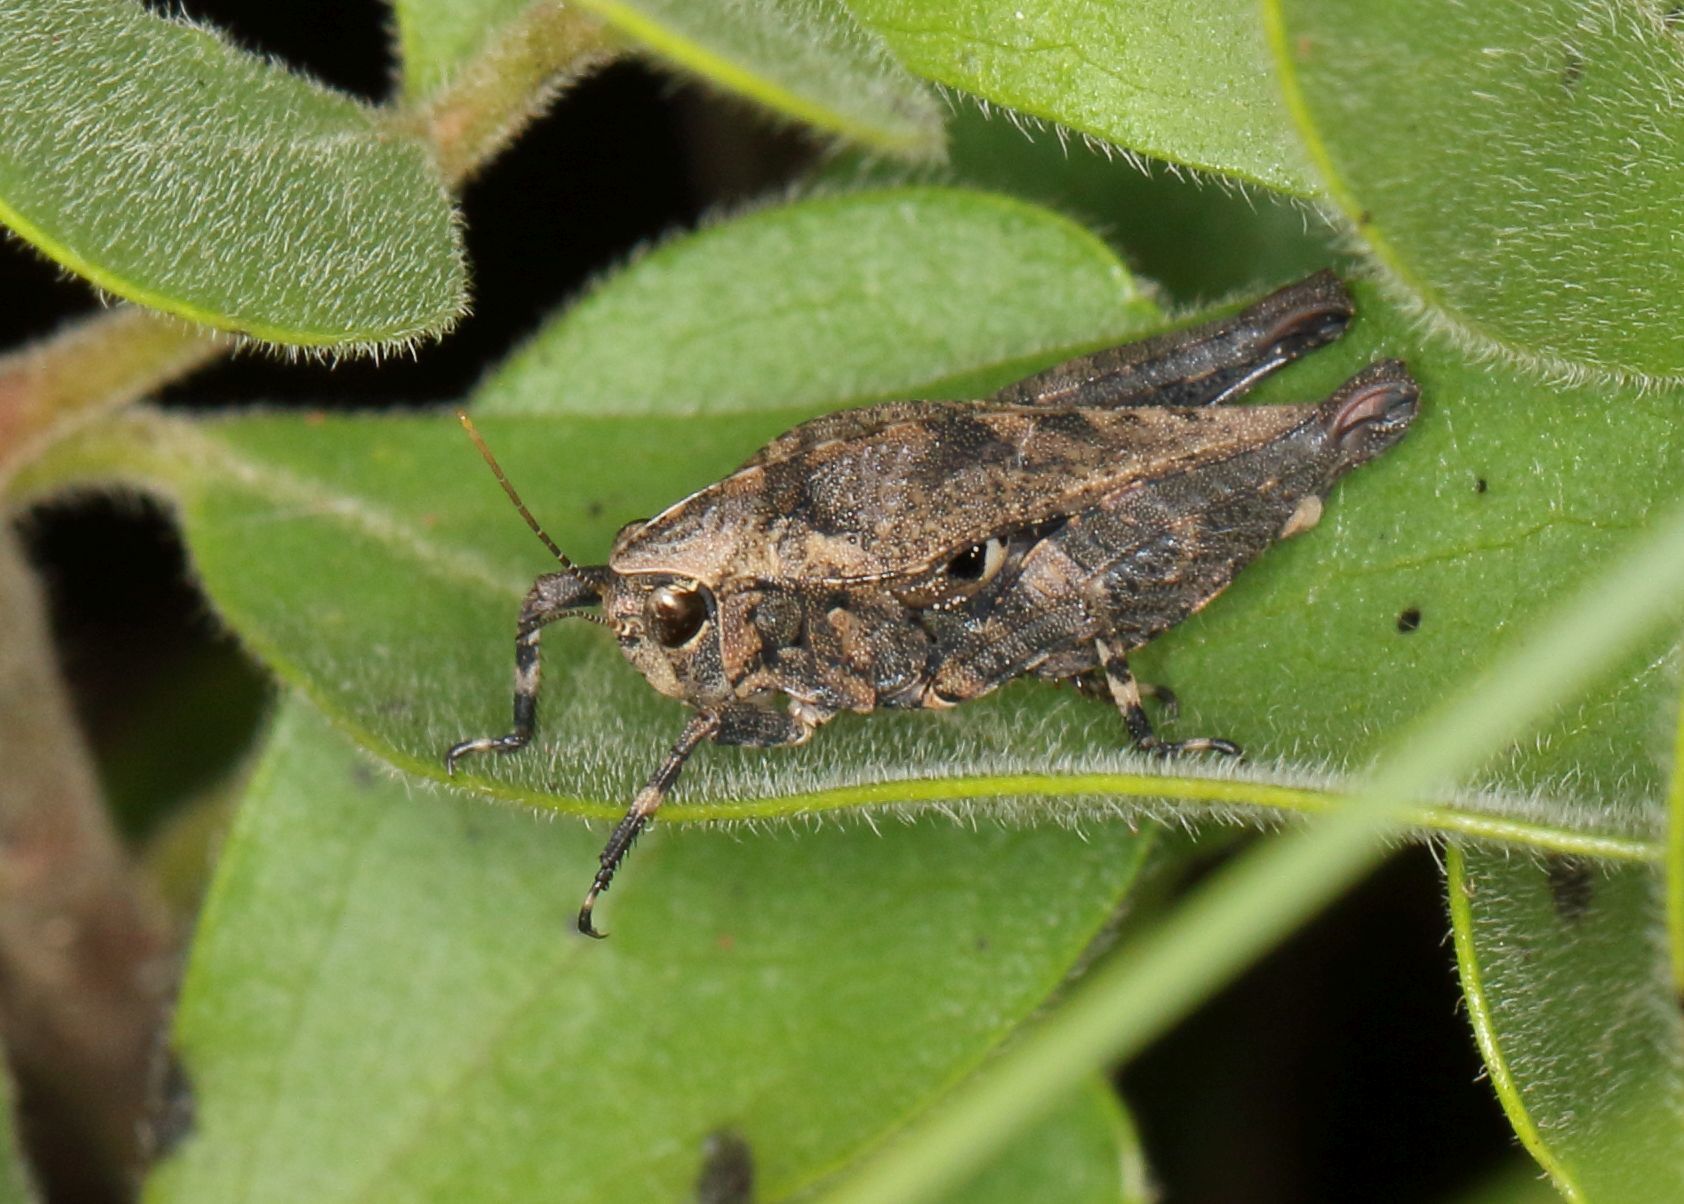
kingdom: Animalia
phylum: Arthropoda
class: Insecta
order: Orthoptera
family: Tetrigidae
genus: Phloeonotus
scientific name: Phloeonotus humilis
